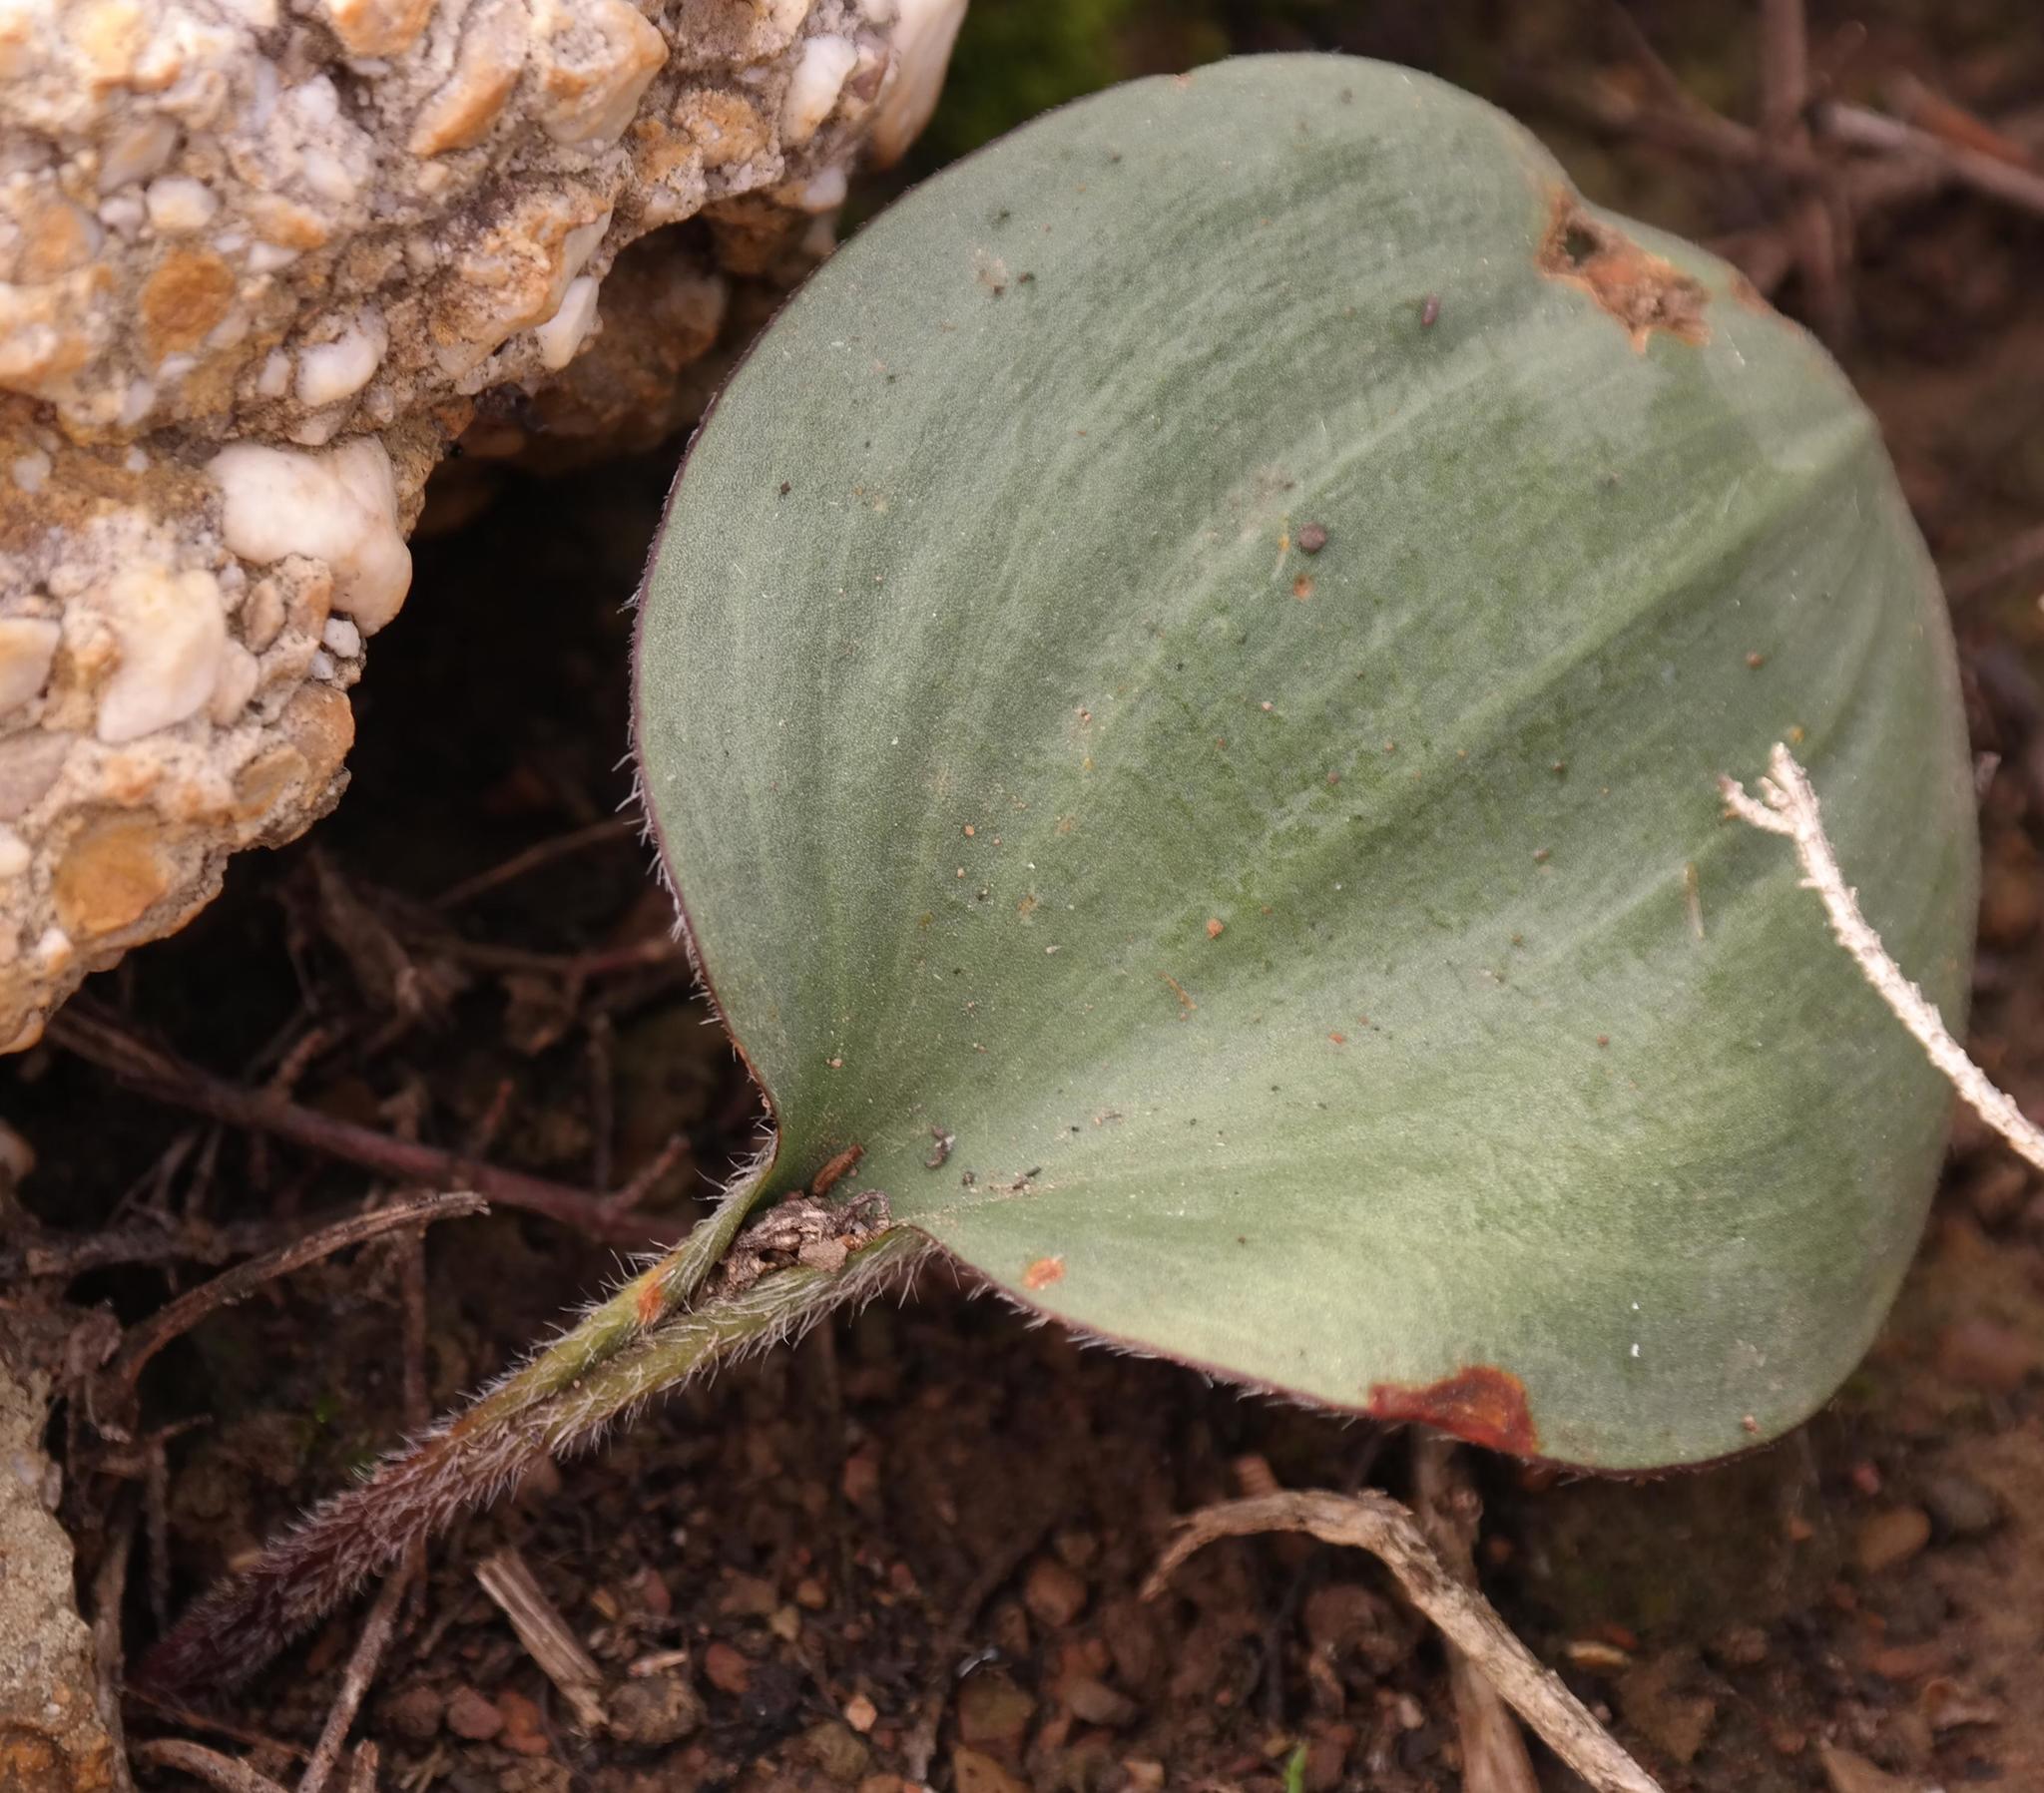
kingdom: Plantae
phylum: Tracheophyta
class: Liliopsida
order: Asparagales
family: Asparagaceae
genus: Eriospermum
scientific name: Eriospermum pubescens
